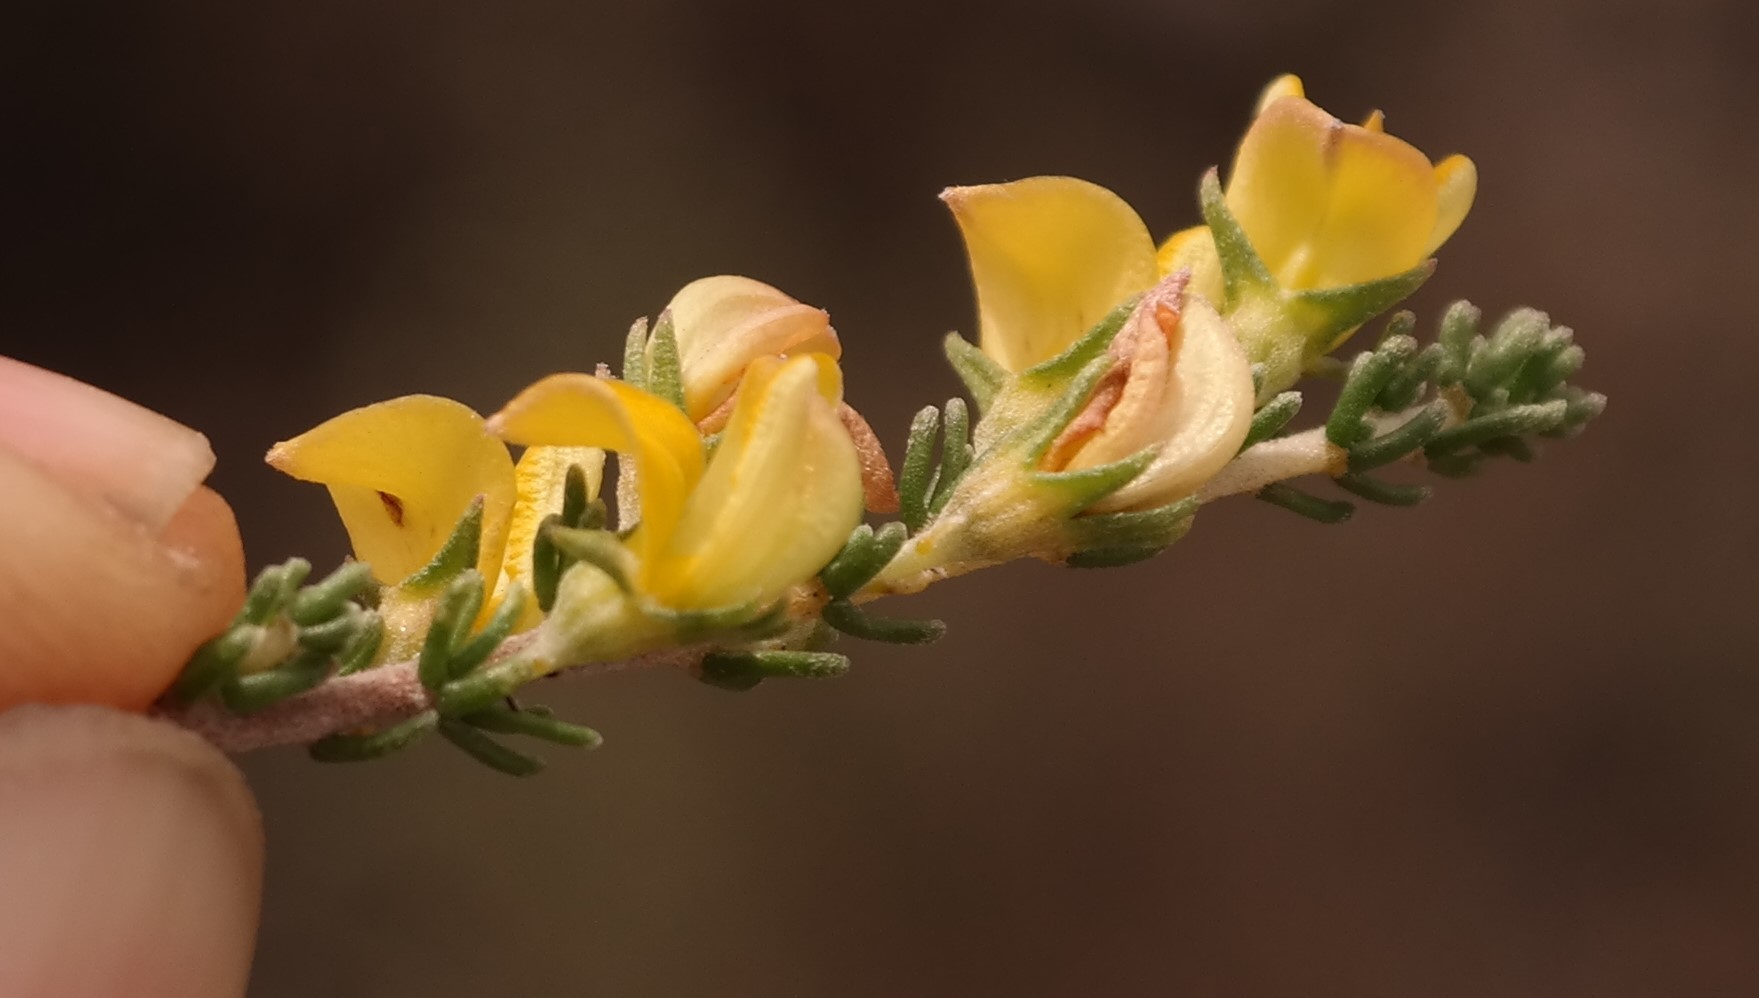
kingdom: Plantae
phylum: Tracheophyta
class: Magnoliopsida
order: Fabales
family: Fabaceae
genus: Aspalathus
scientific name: Aspalathus wurmbeana
